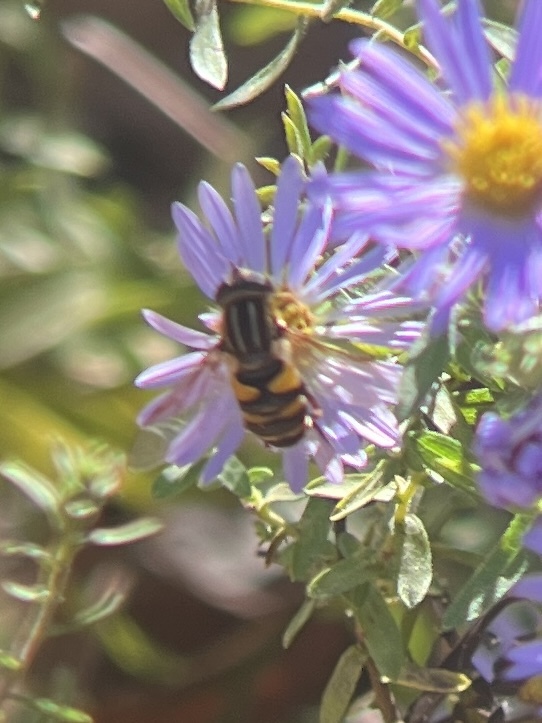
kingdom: Animalia
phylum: Arthropoda
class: Insecta
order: Diptera
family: Syrphidae
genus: Helophilus
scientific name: Helophilus fasciatus
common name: Narrow-headed marsh fly
